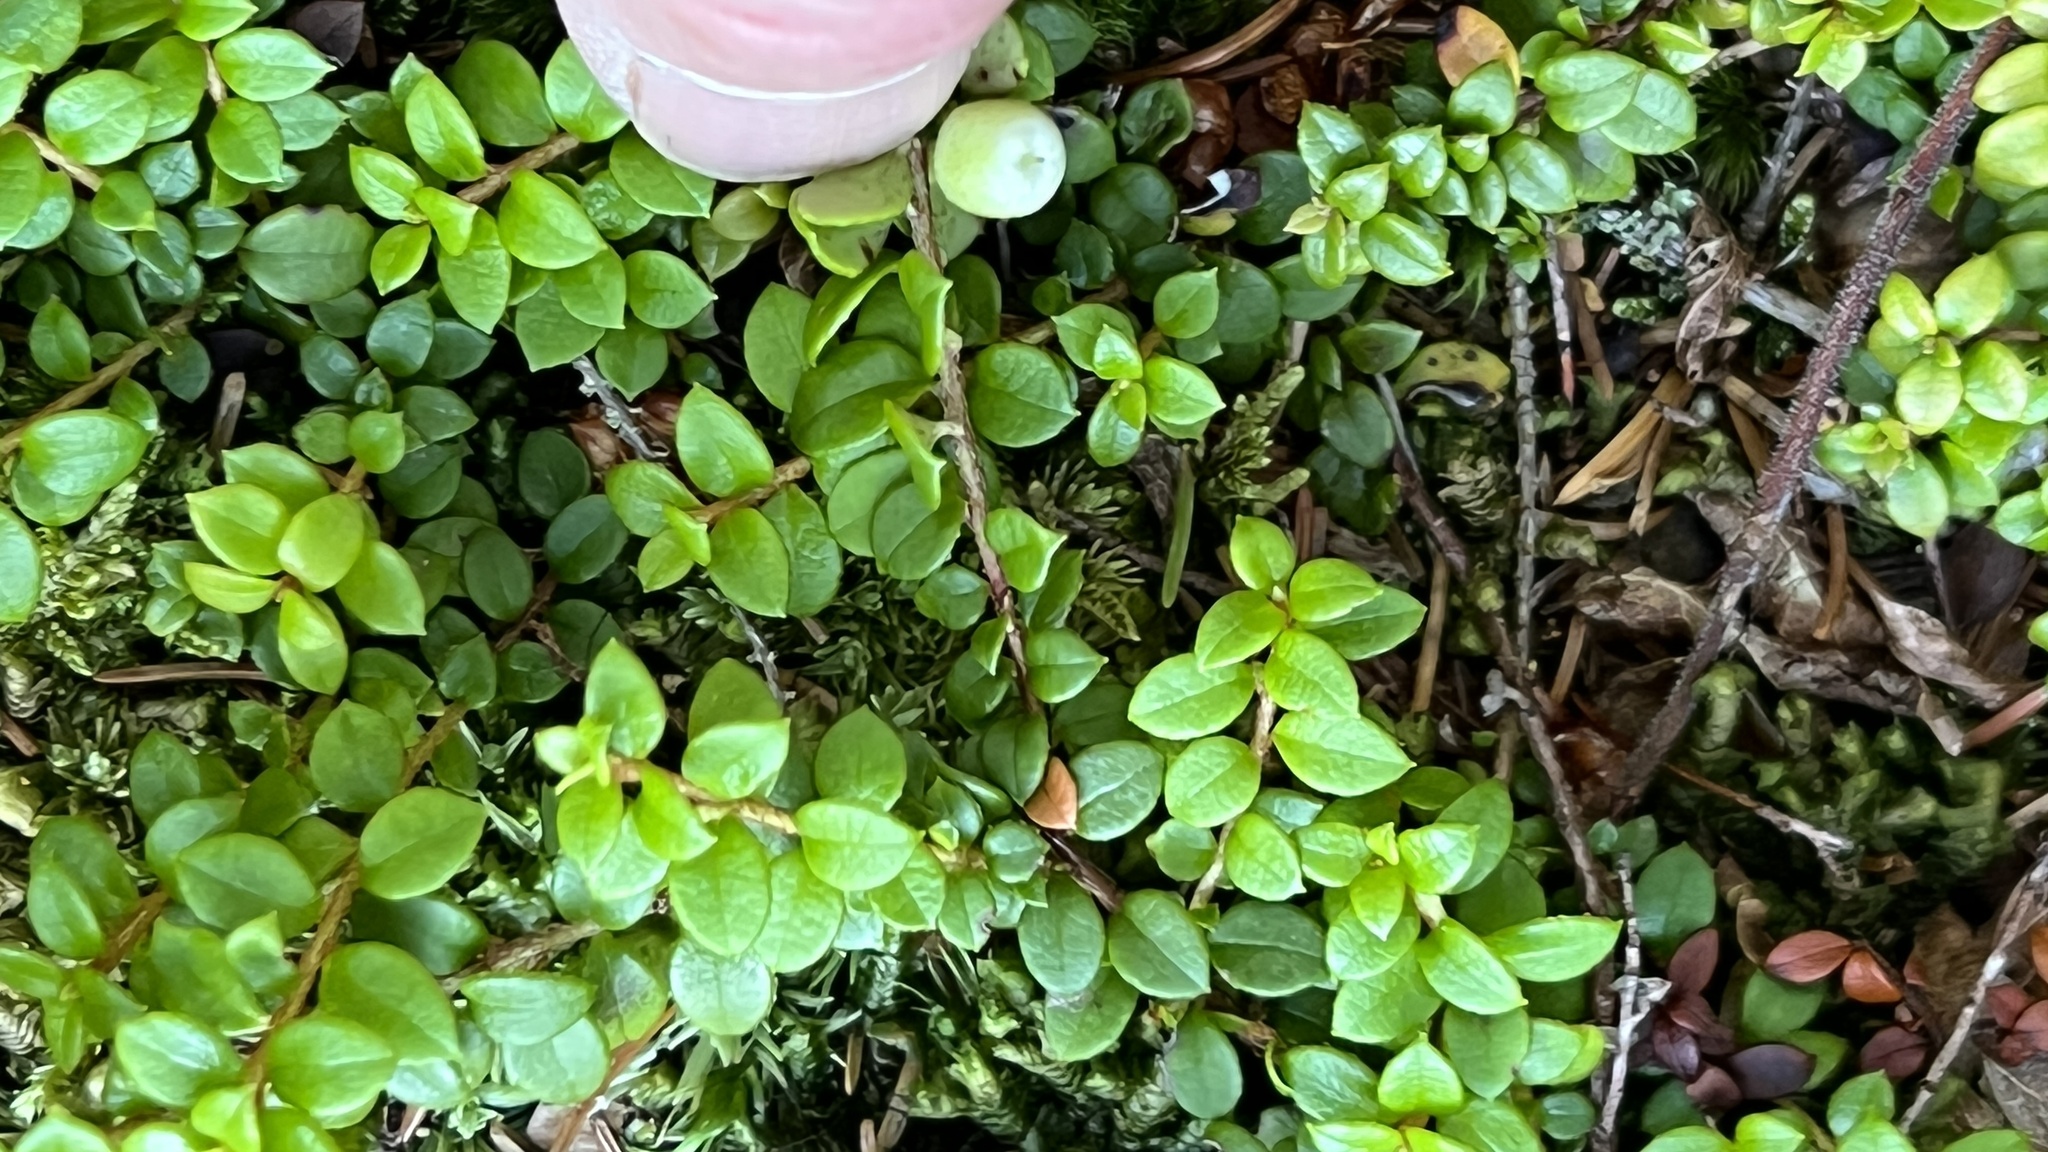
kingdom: Plantae
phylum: Tracheophyta
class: Magnoliopsida
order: Ericales
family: Ericaceae
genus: Gaultheria
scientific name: Gaultheria hispidula
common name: Cancer wintergreen
